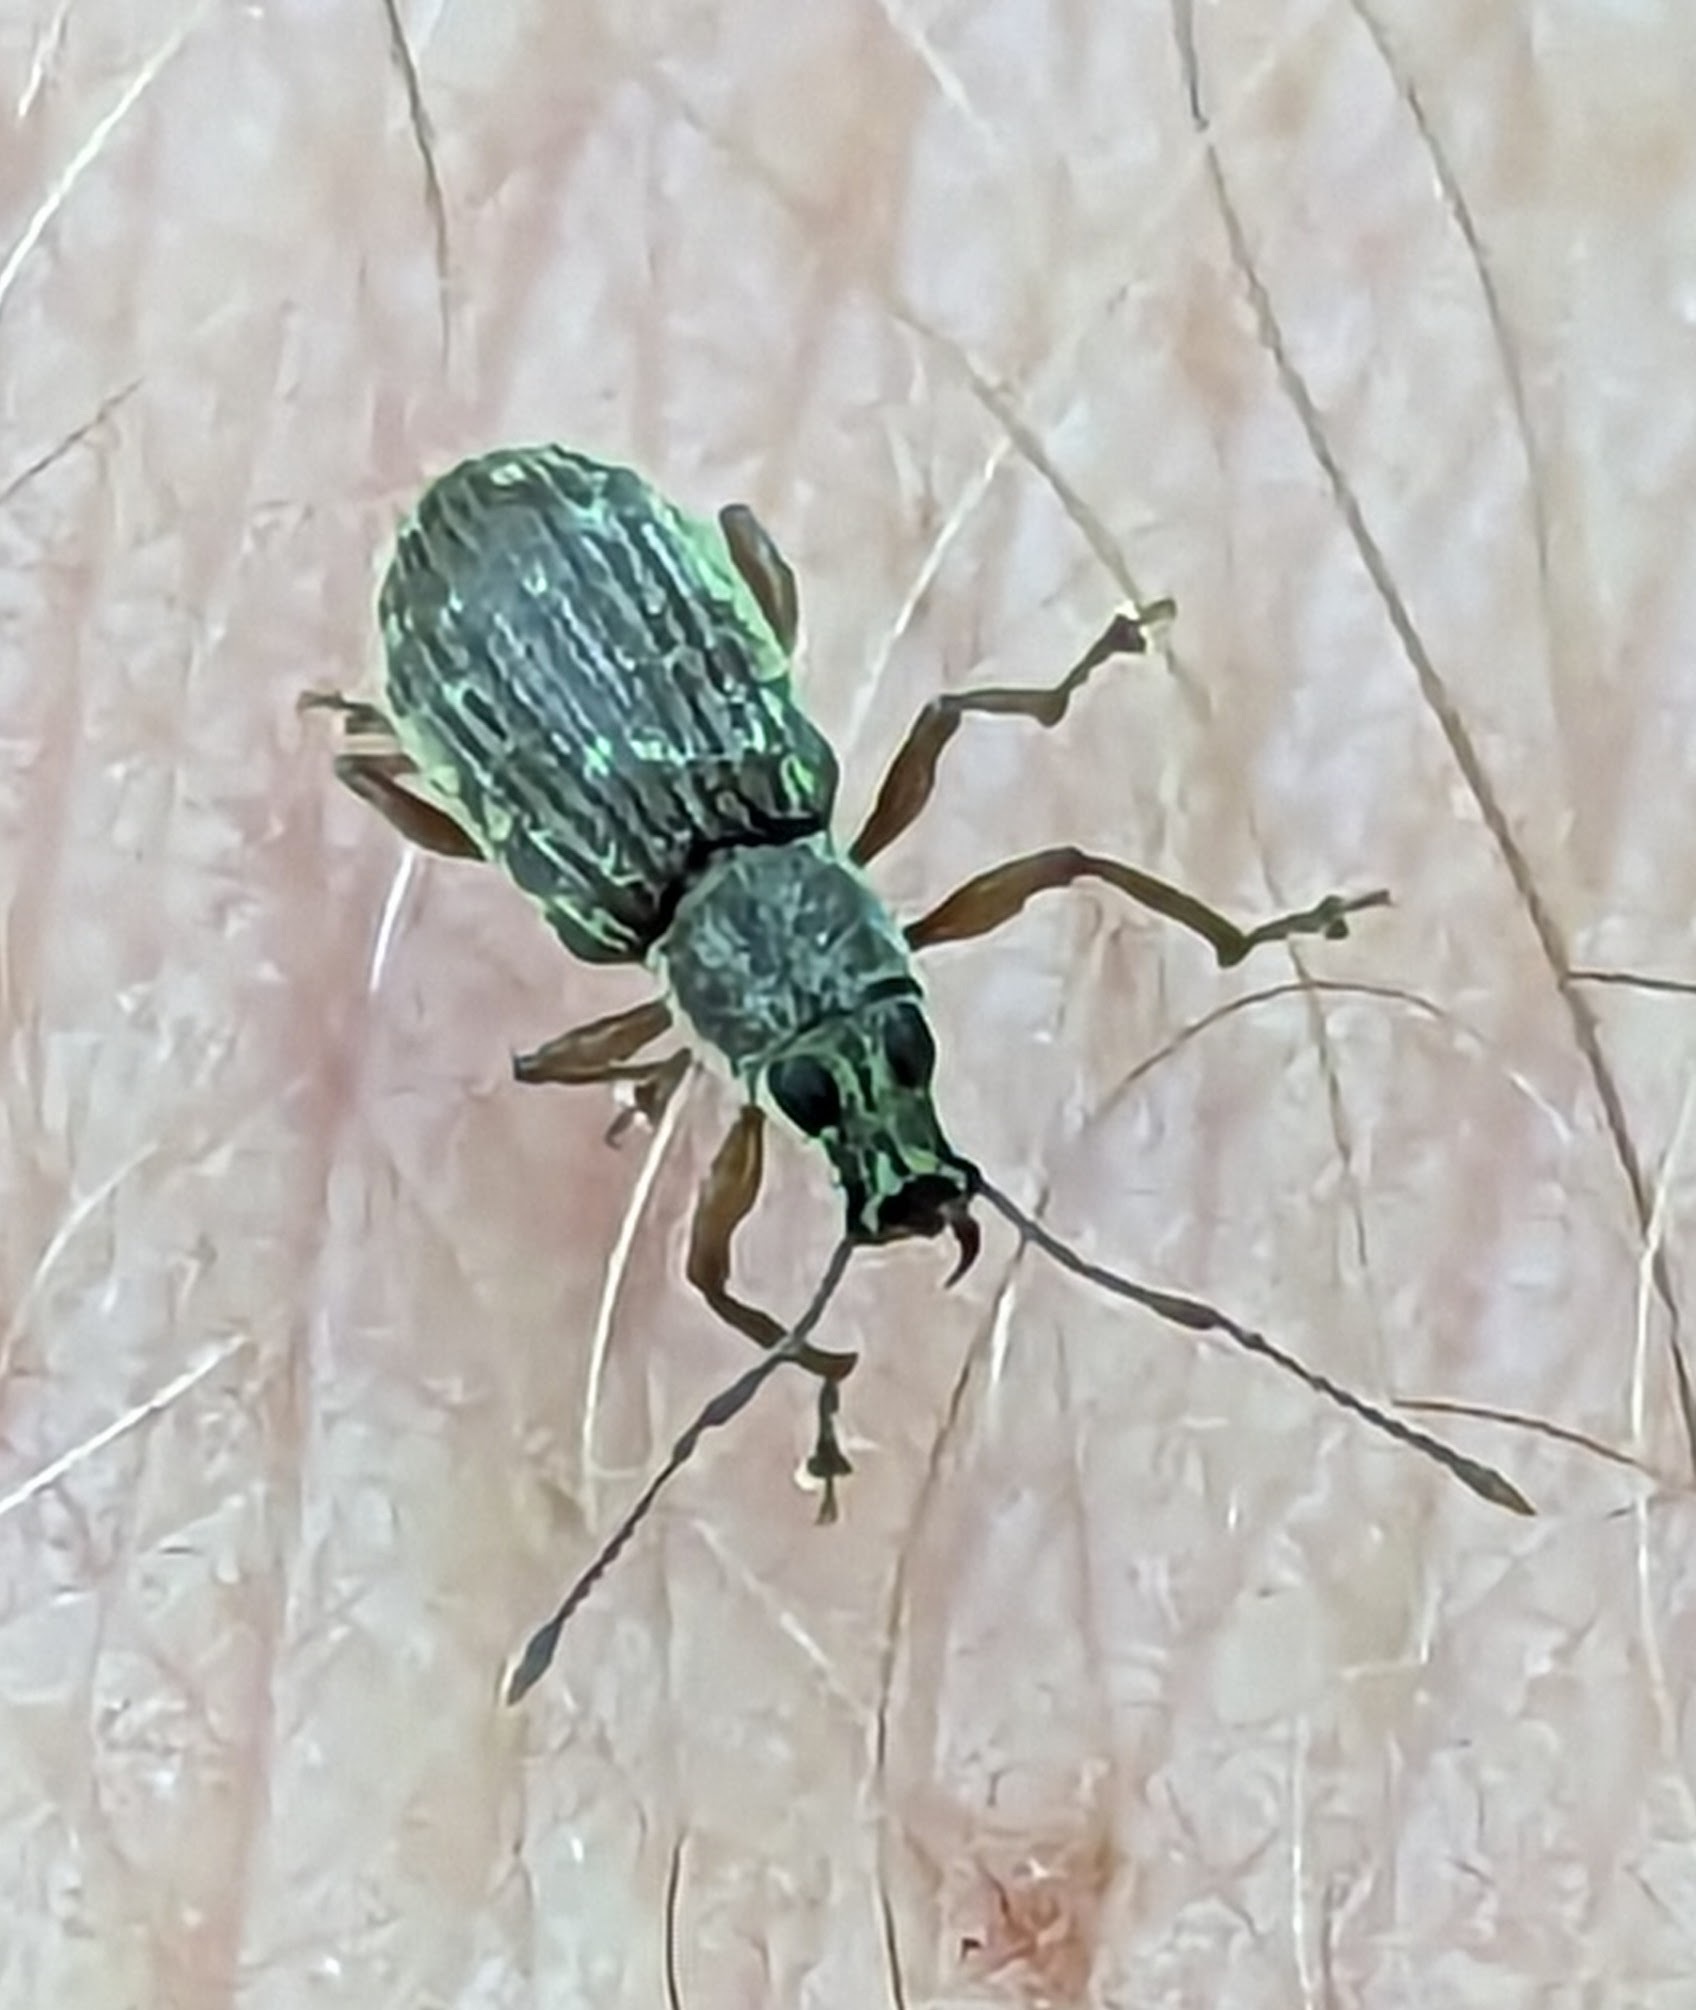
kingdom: Animalia
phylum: Arthropoda
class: Insecta
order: Coleoptera
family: Curculionidae
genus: Cyrtepistomus
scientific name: Cyrtepistomus castaneus
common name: Weevil
